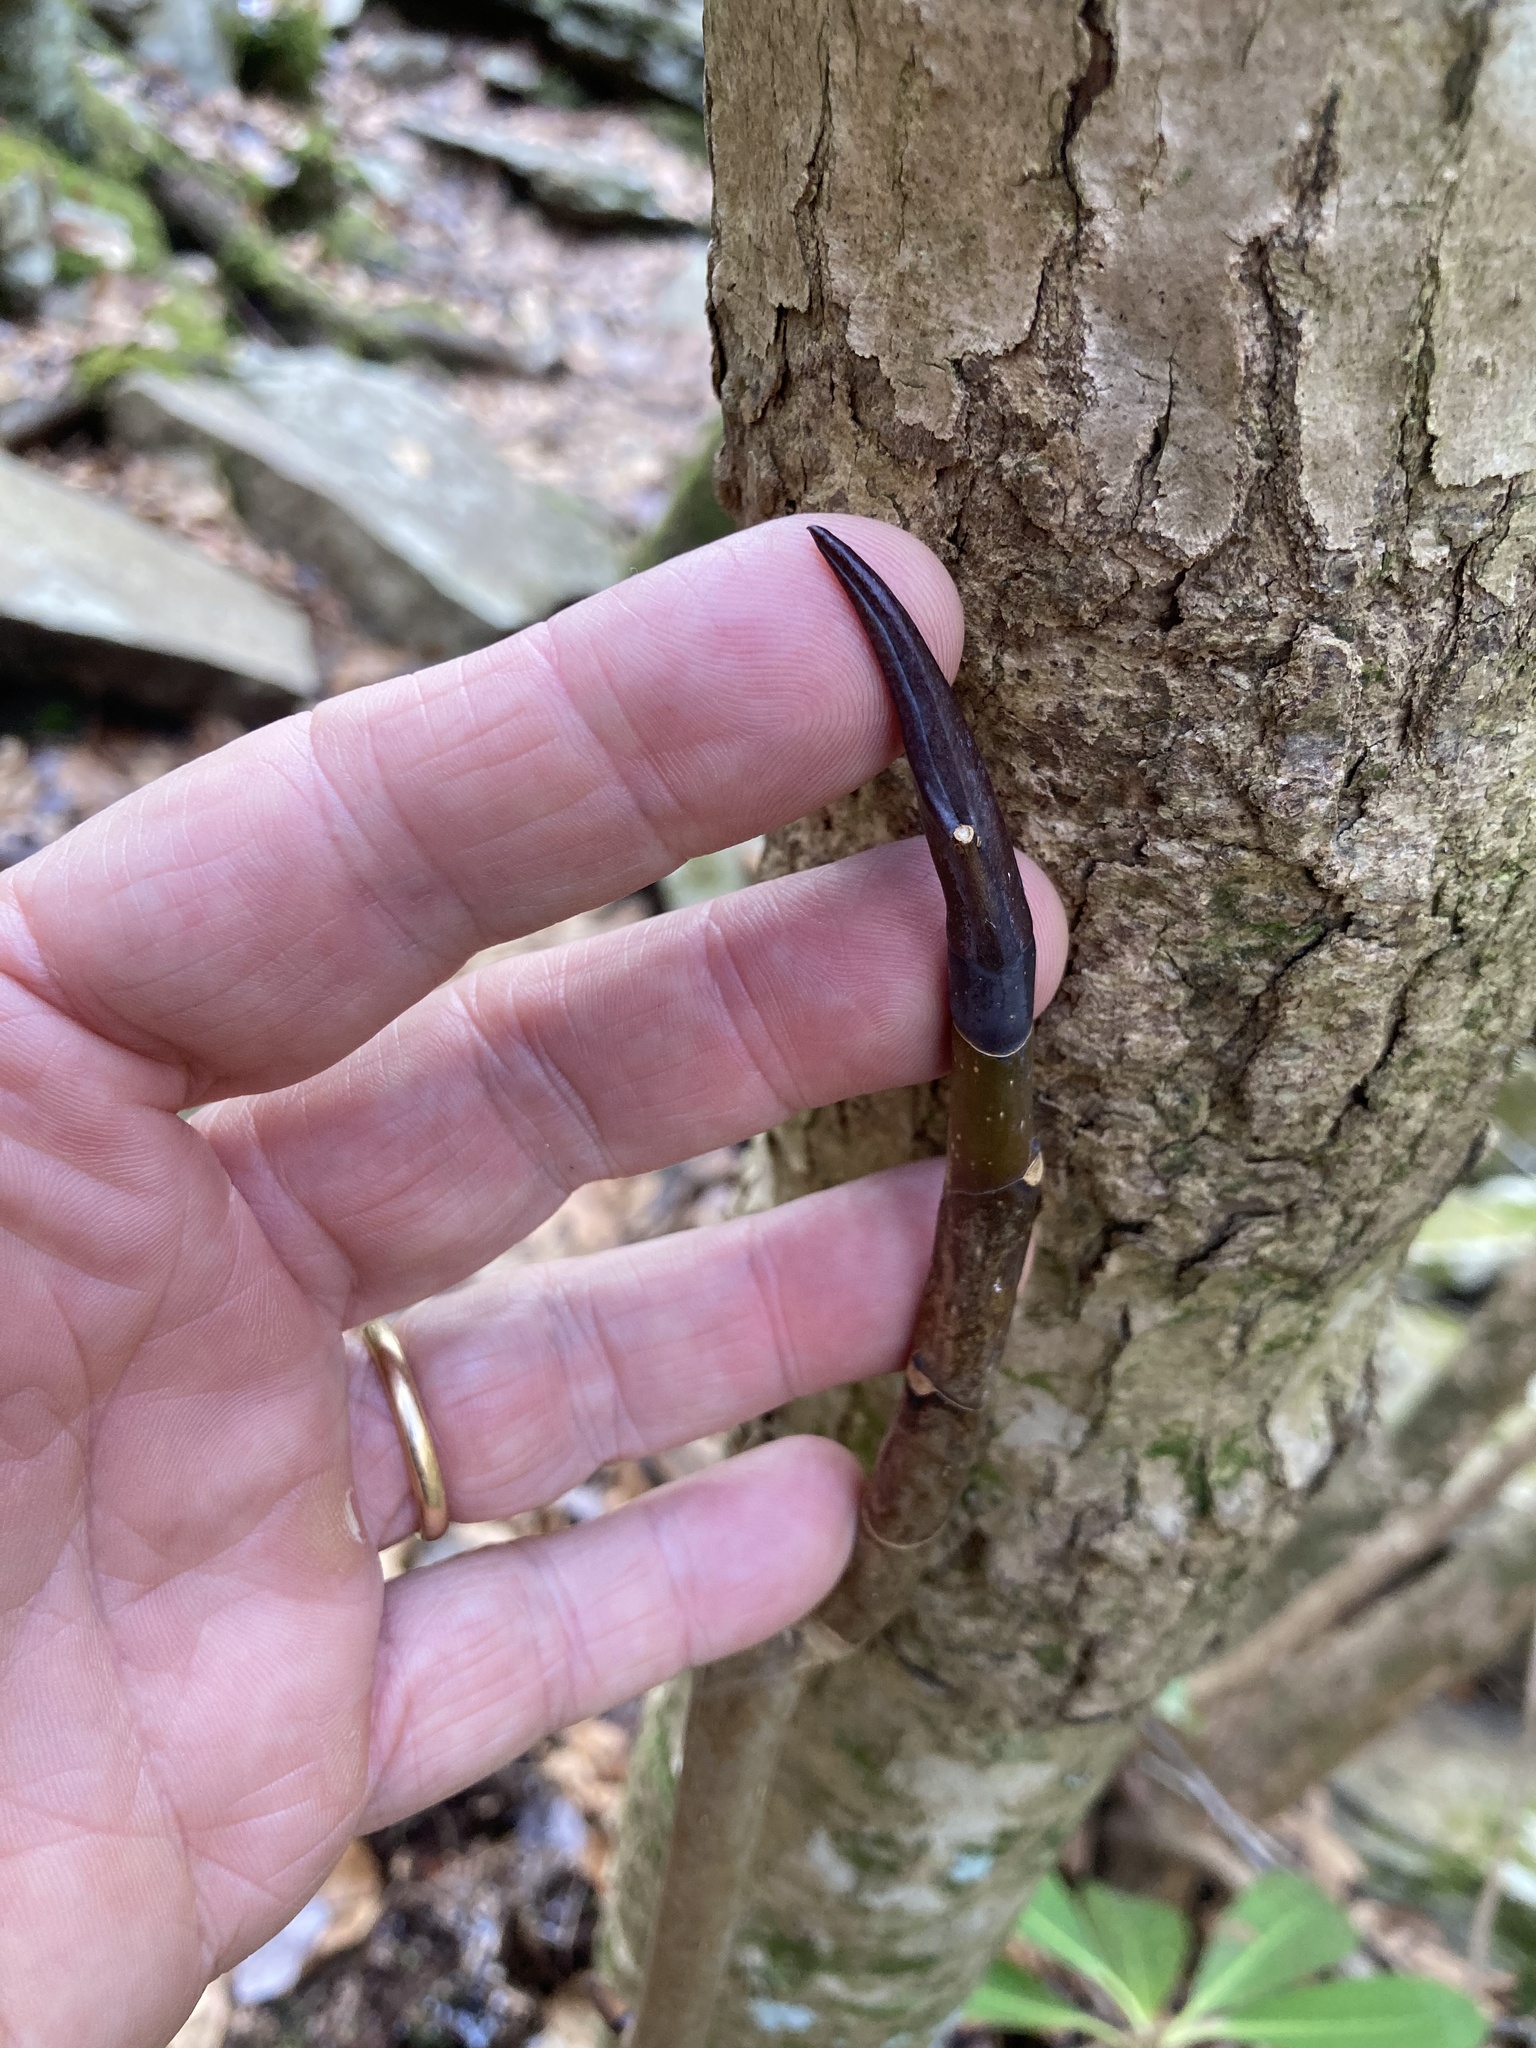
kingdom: Plantae
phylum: Tracheophyta
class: Magnoliopsida
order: Magnoliales
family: Magnoliaceae
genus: Magnolia
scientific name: Magnolia tripetala
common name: Umbrella magnolia
